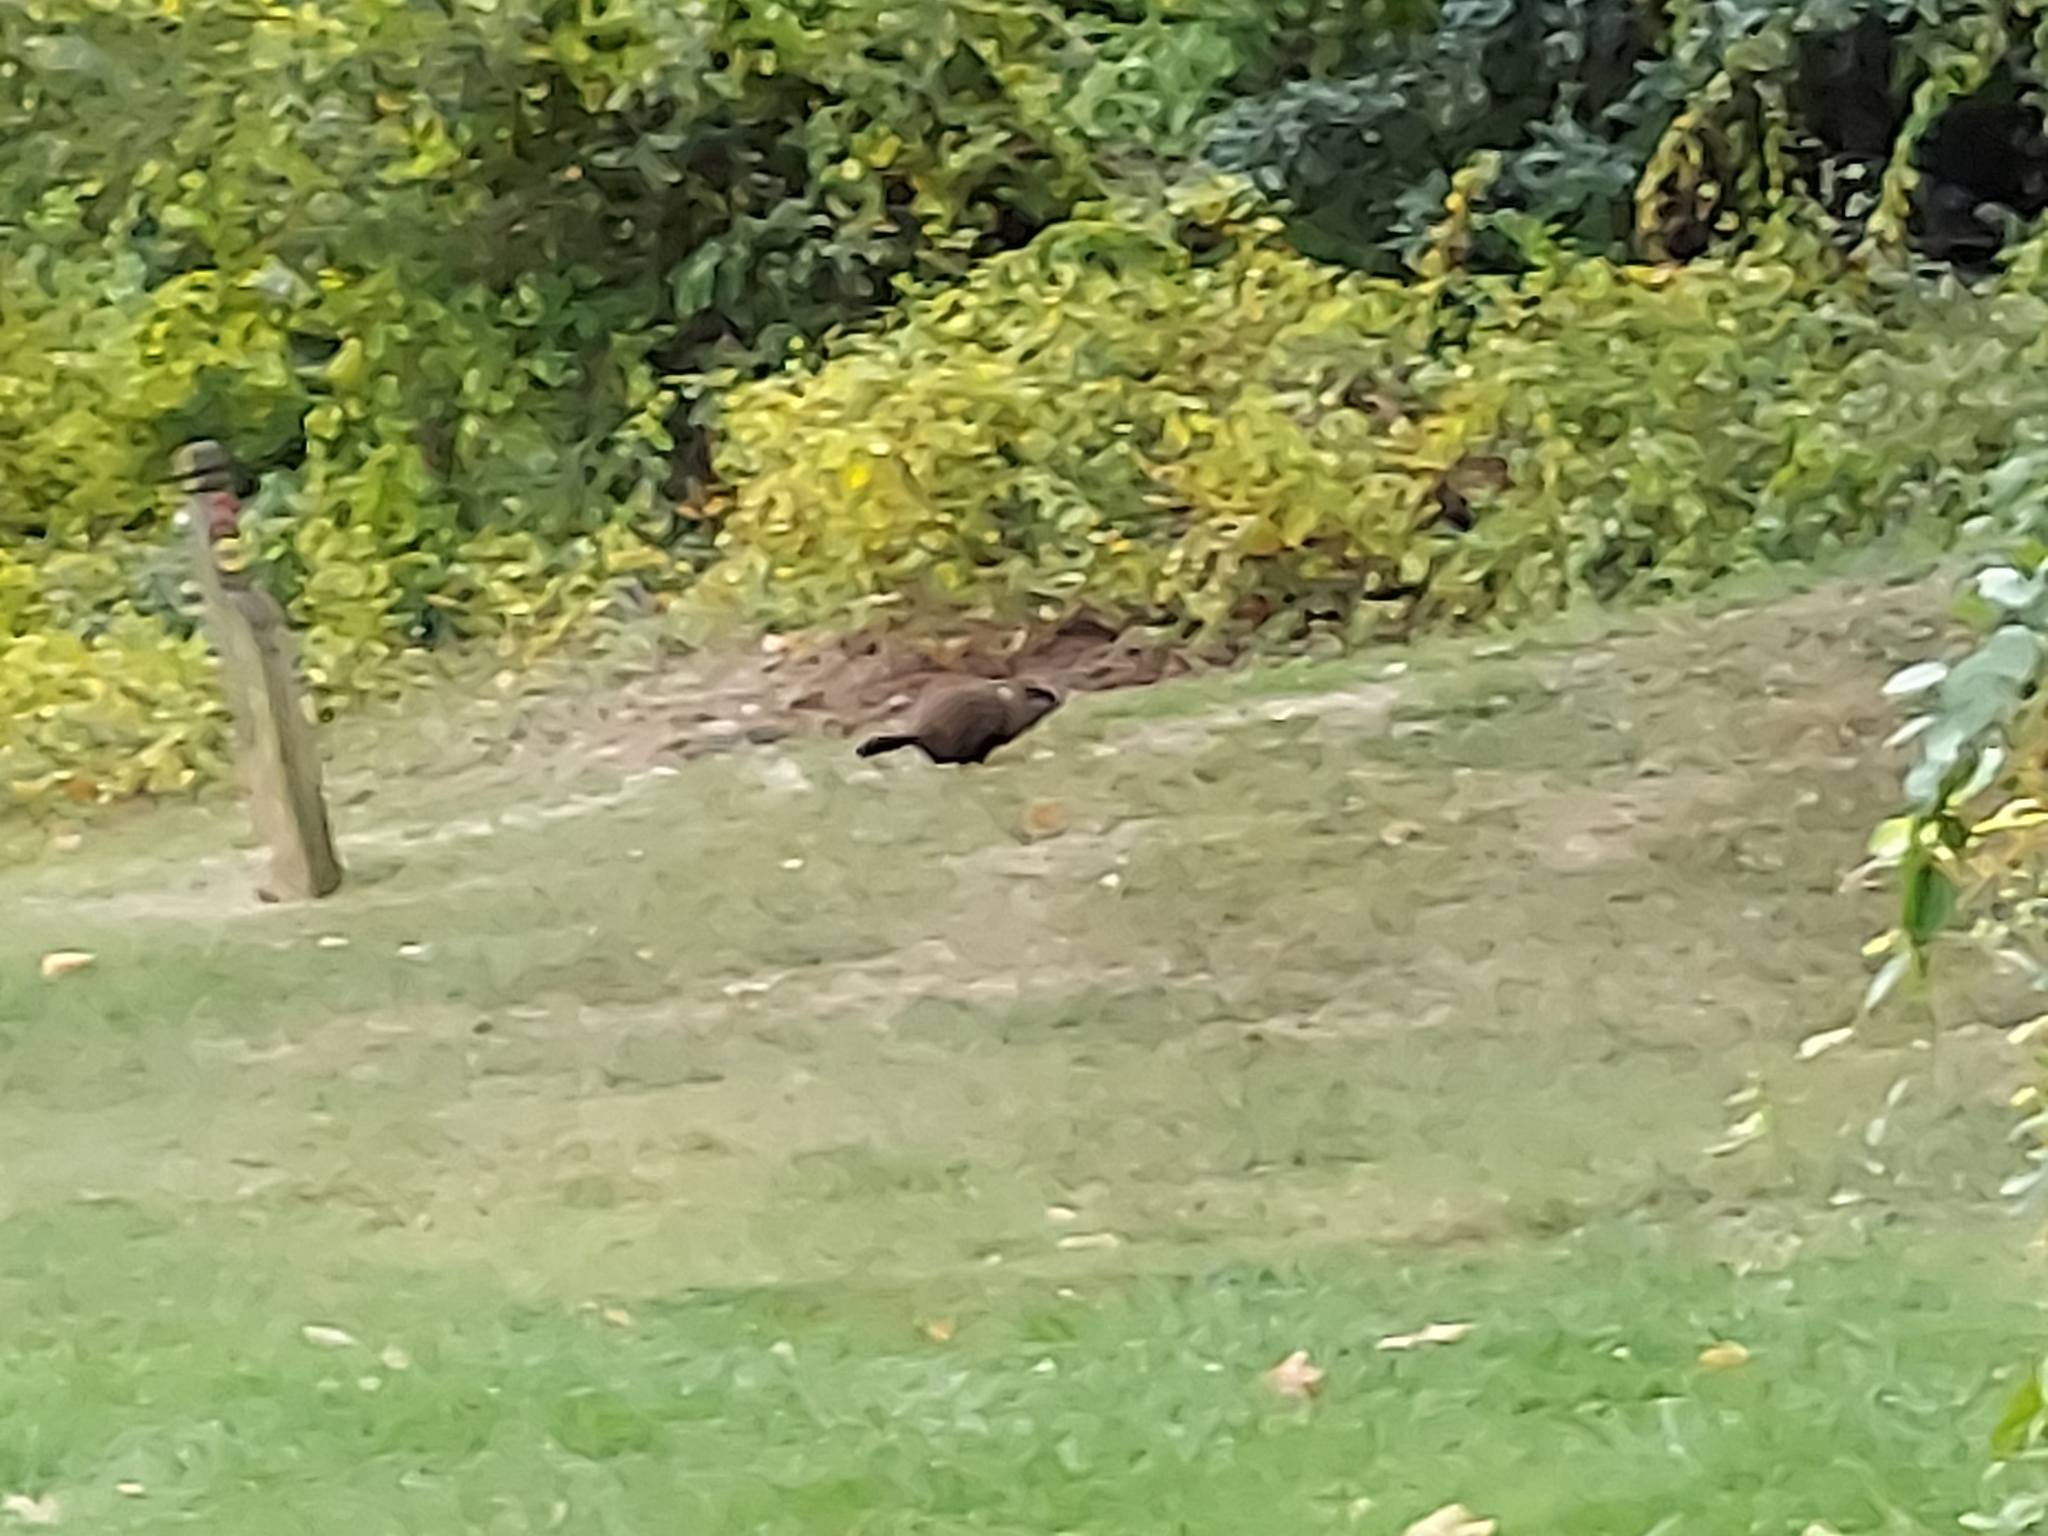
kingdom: Animalia
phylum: Chordata
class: Mammalia
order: Rodentia
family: Sciuridae
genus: Marmota
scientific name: Marmota monax
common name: Groundhog
